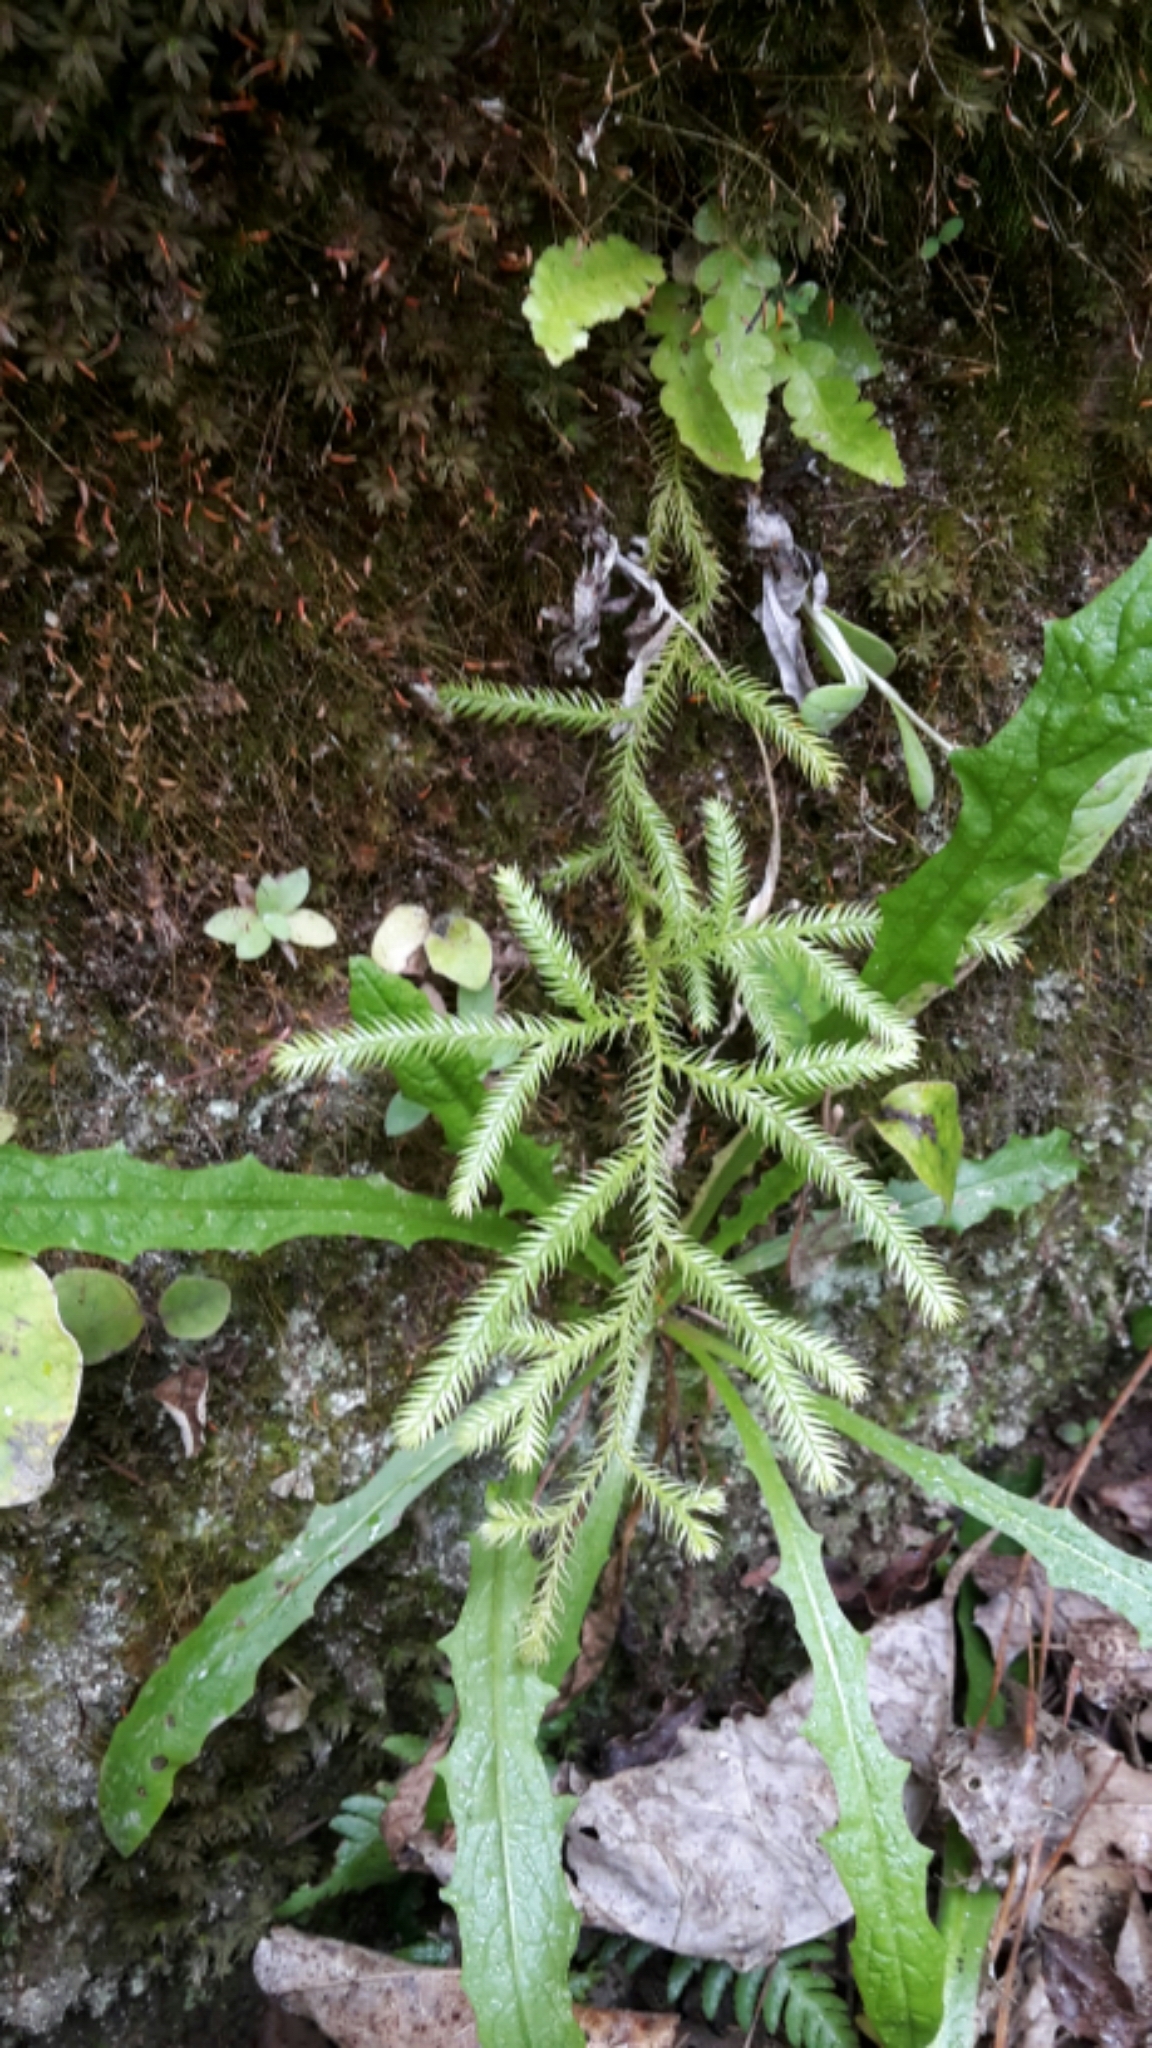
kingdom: Plantae
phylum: Tracheophyta
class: Lycopodiopsida
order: Lycopodiales
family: Lycopodiaceae
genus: Lycopodium
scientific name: Lycopodium volubile
